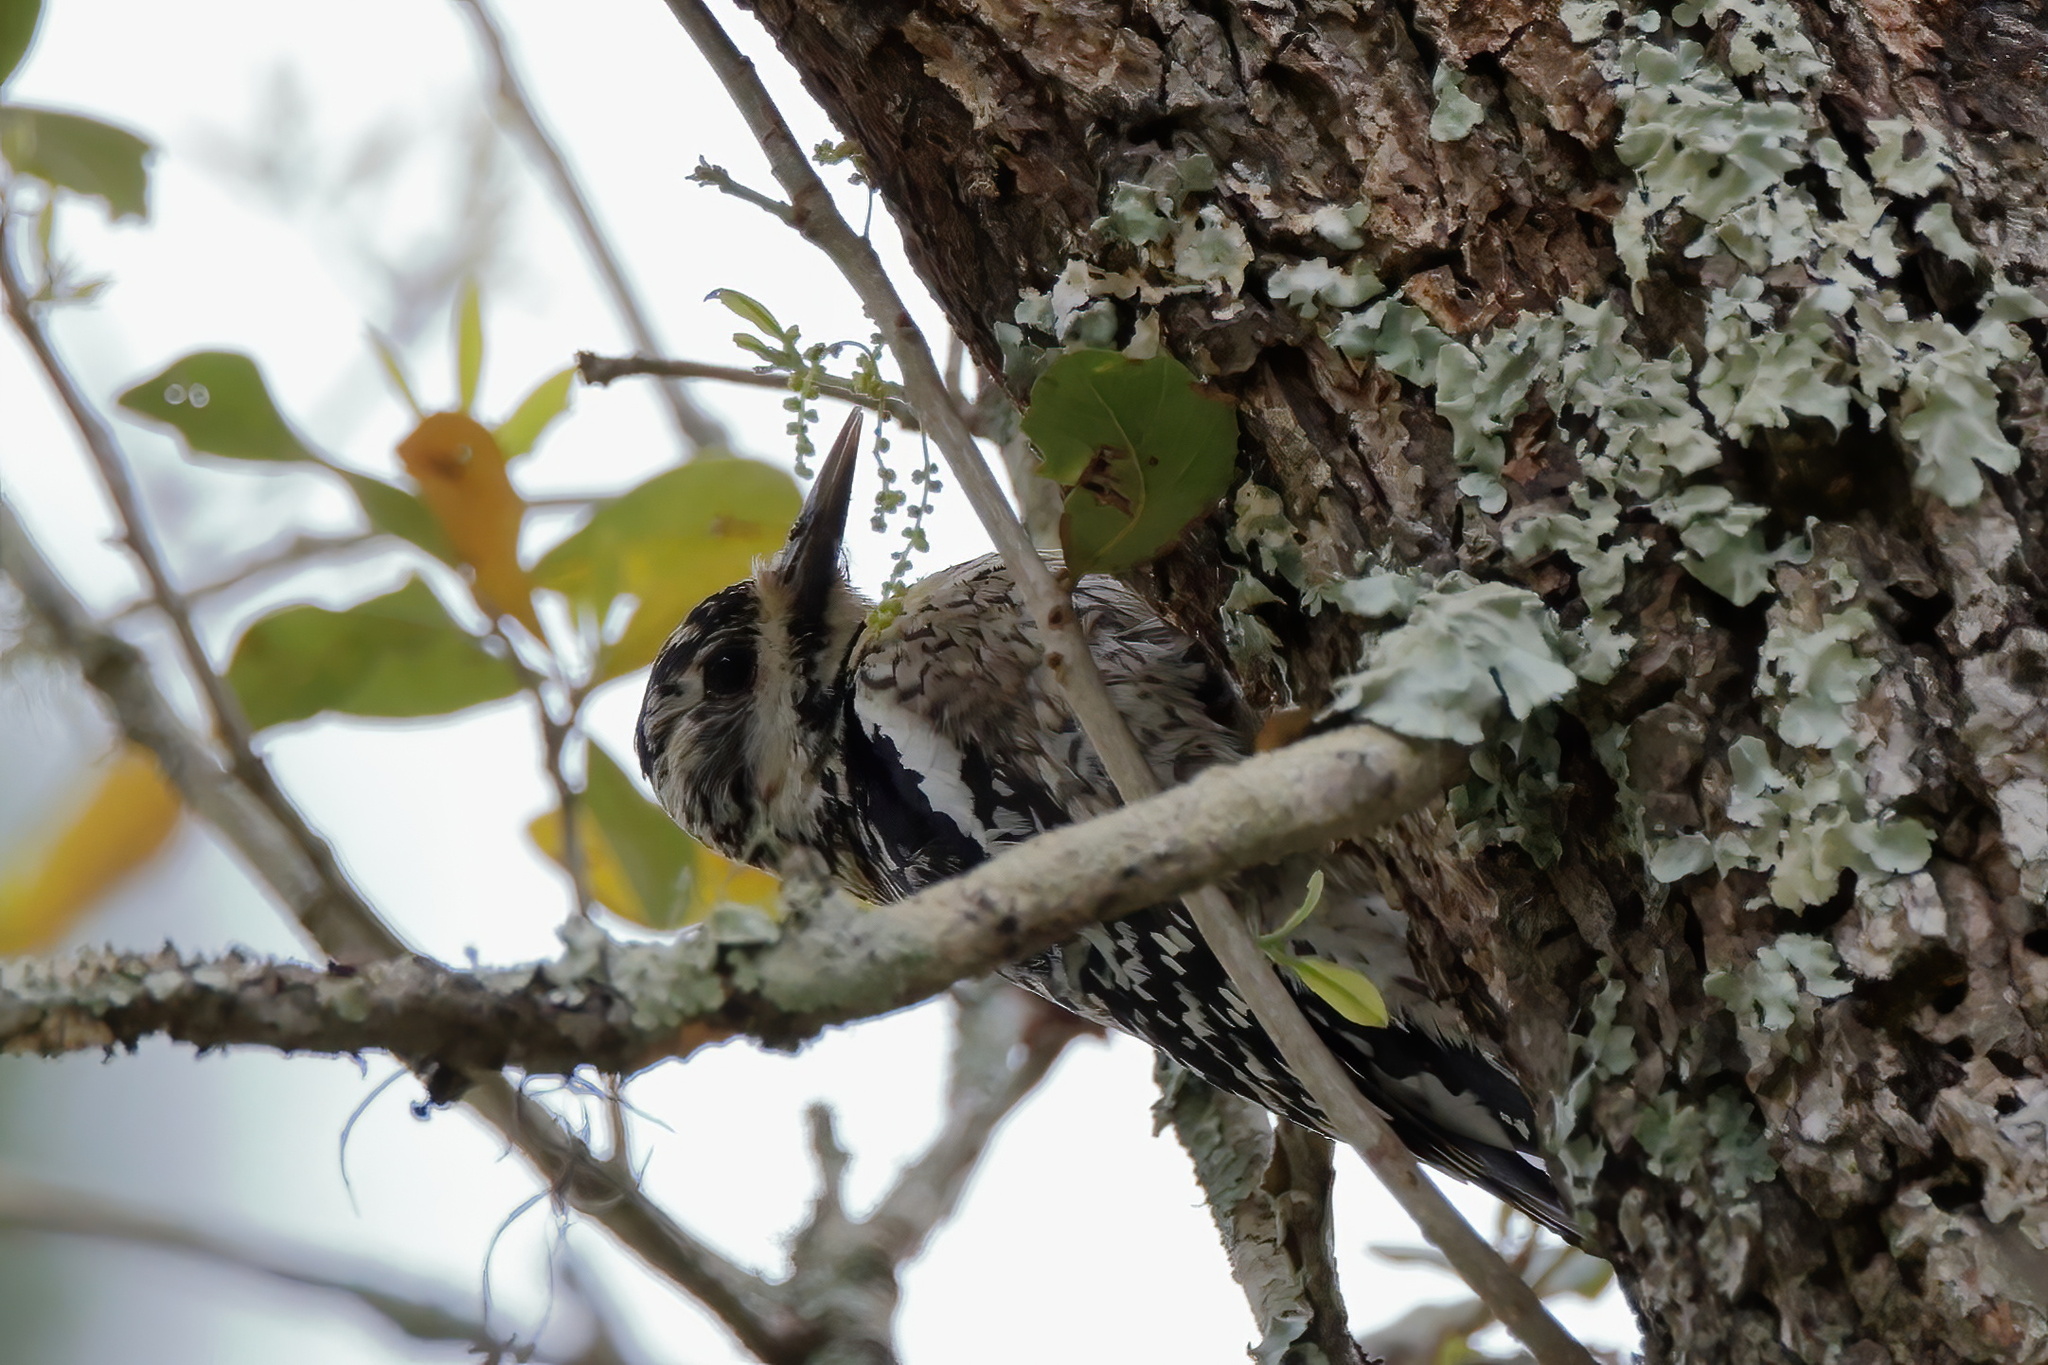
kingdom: Animalia
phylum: Chordata
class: Aves
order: Piciformes
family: Picidae
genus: Sphyrapicus
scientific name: Sphyrapicus varius
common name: Yellow-bellied sapsucker
